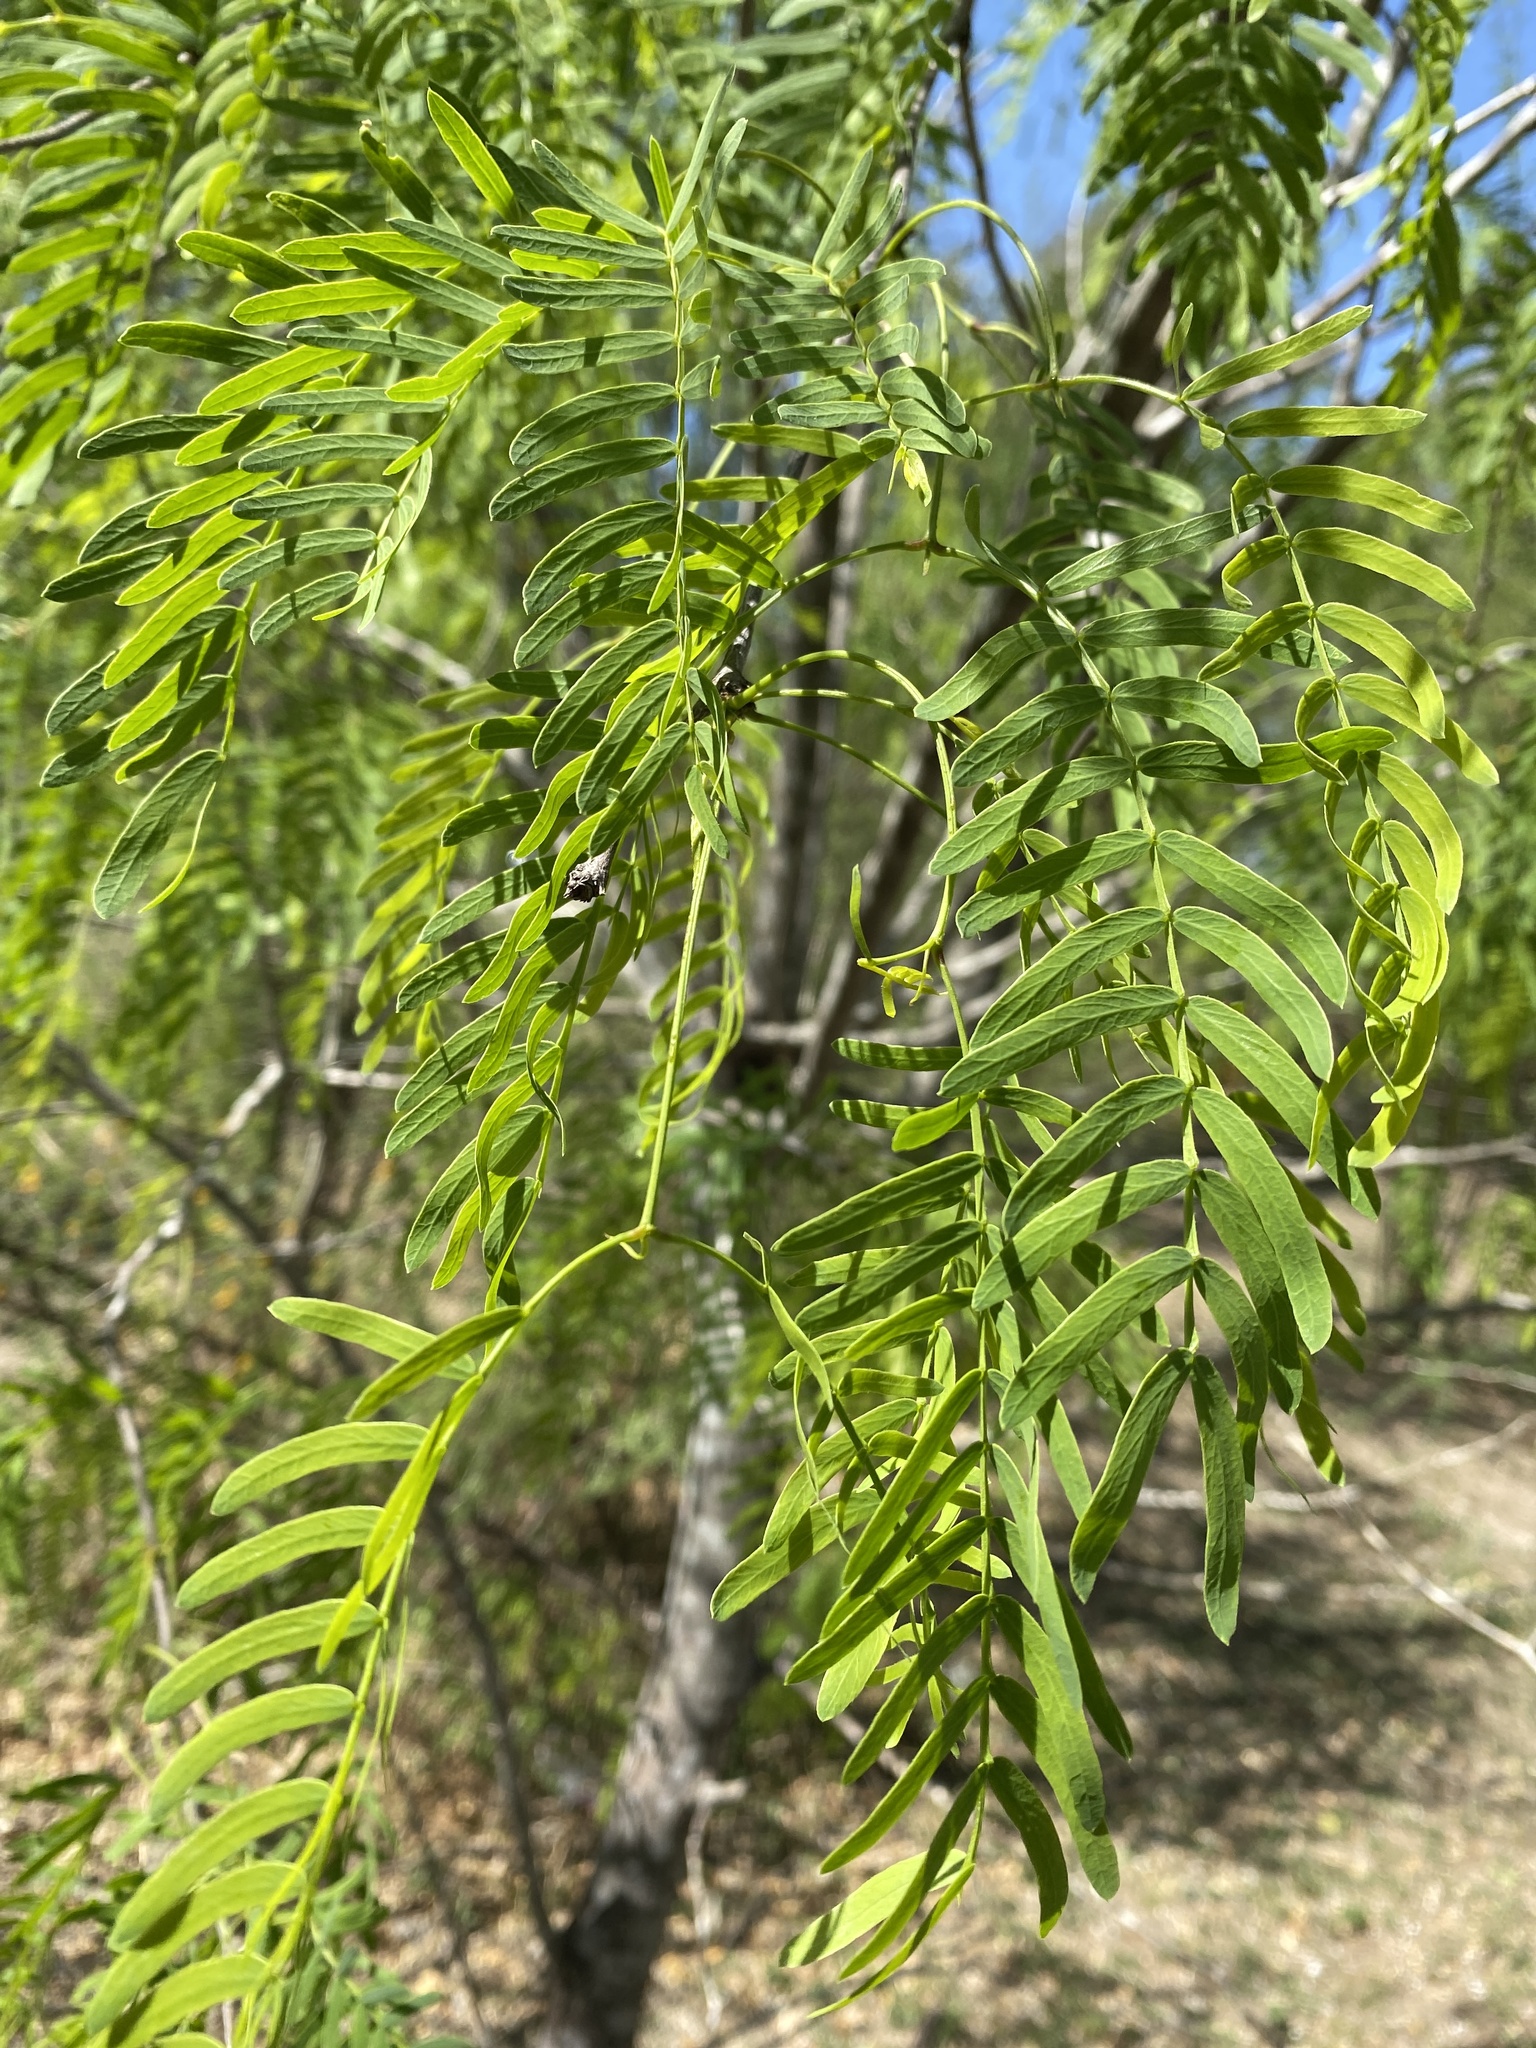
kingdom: Plantae
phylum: Tracheophyta
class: Magnoliopsida
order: Fabales
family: Fabaceae
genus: Prosopis
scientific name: Prosopis glandulosa
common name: Honey mesquite
